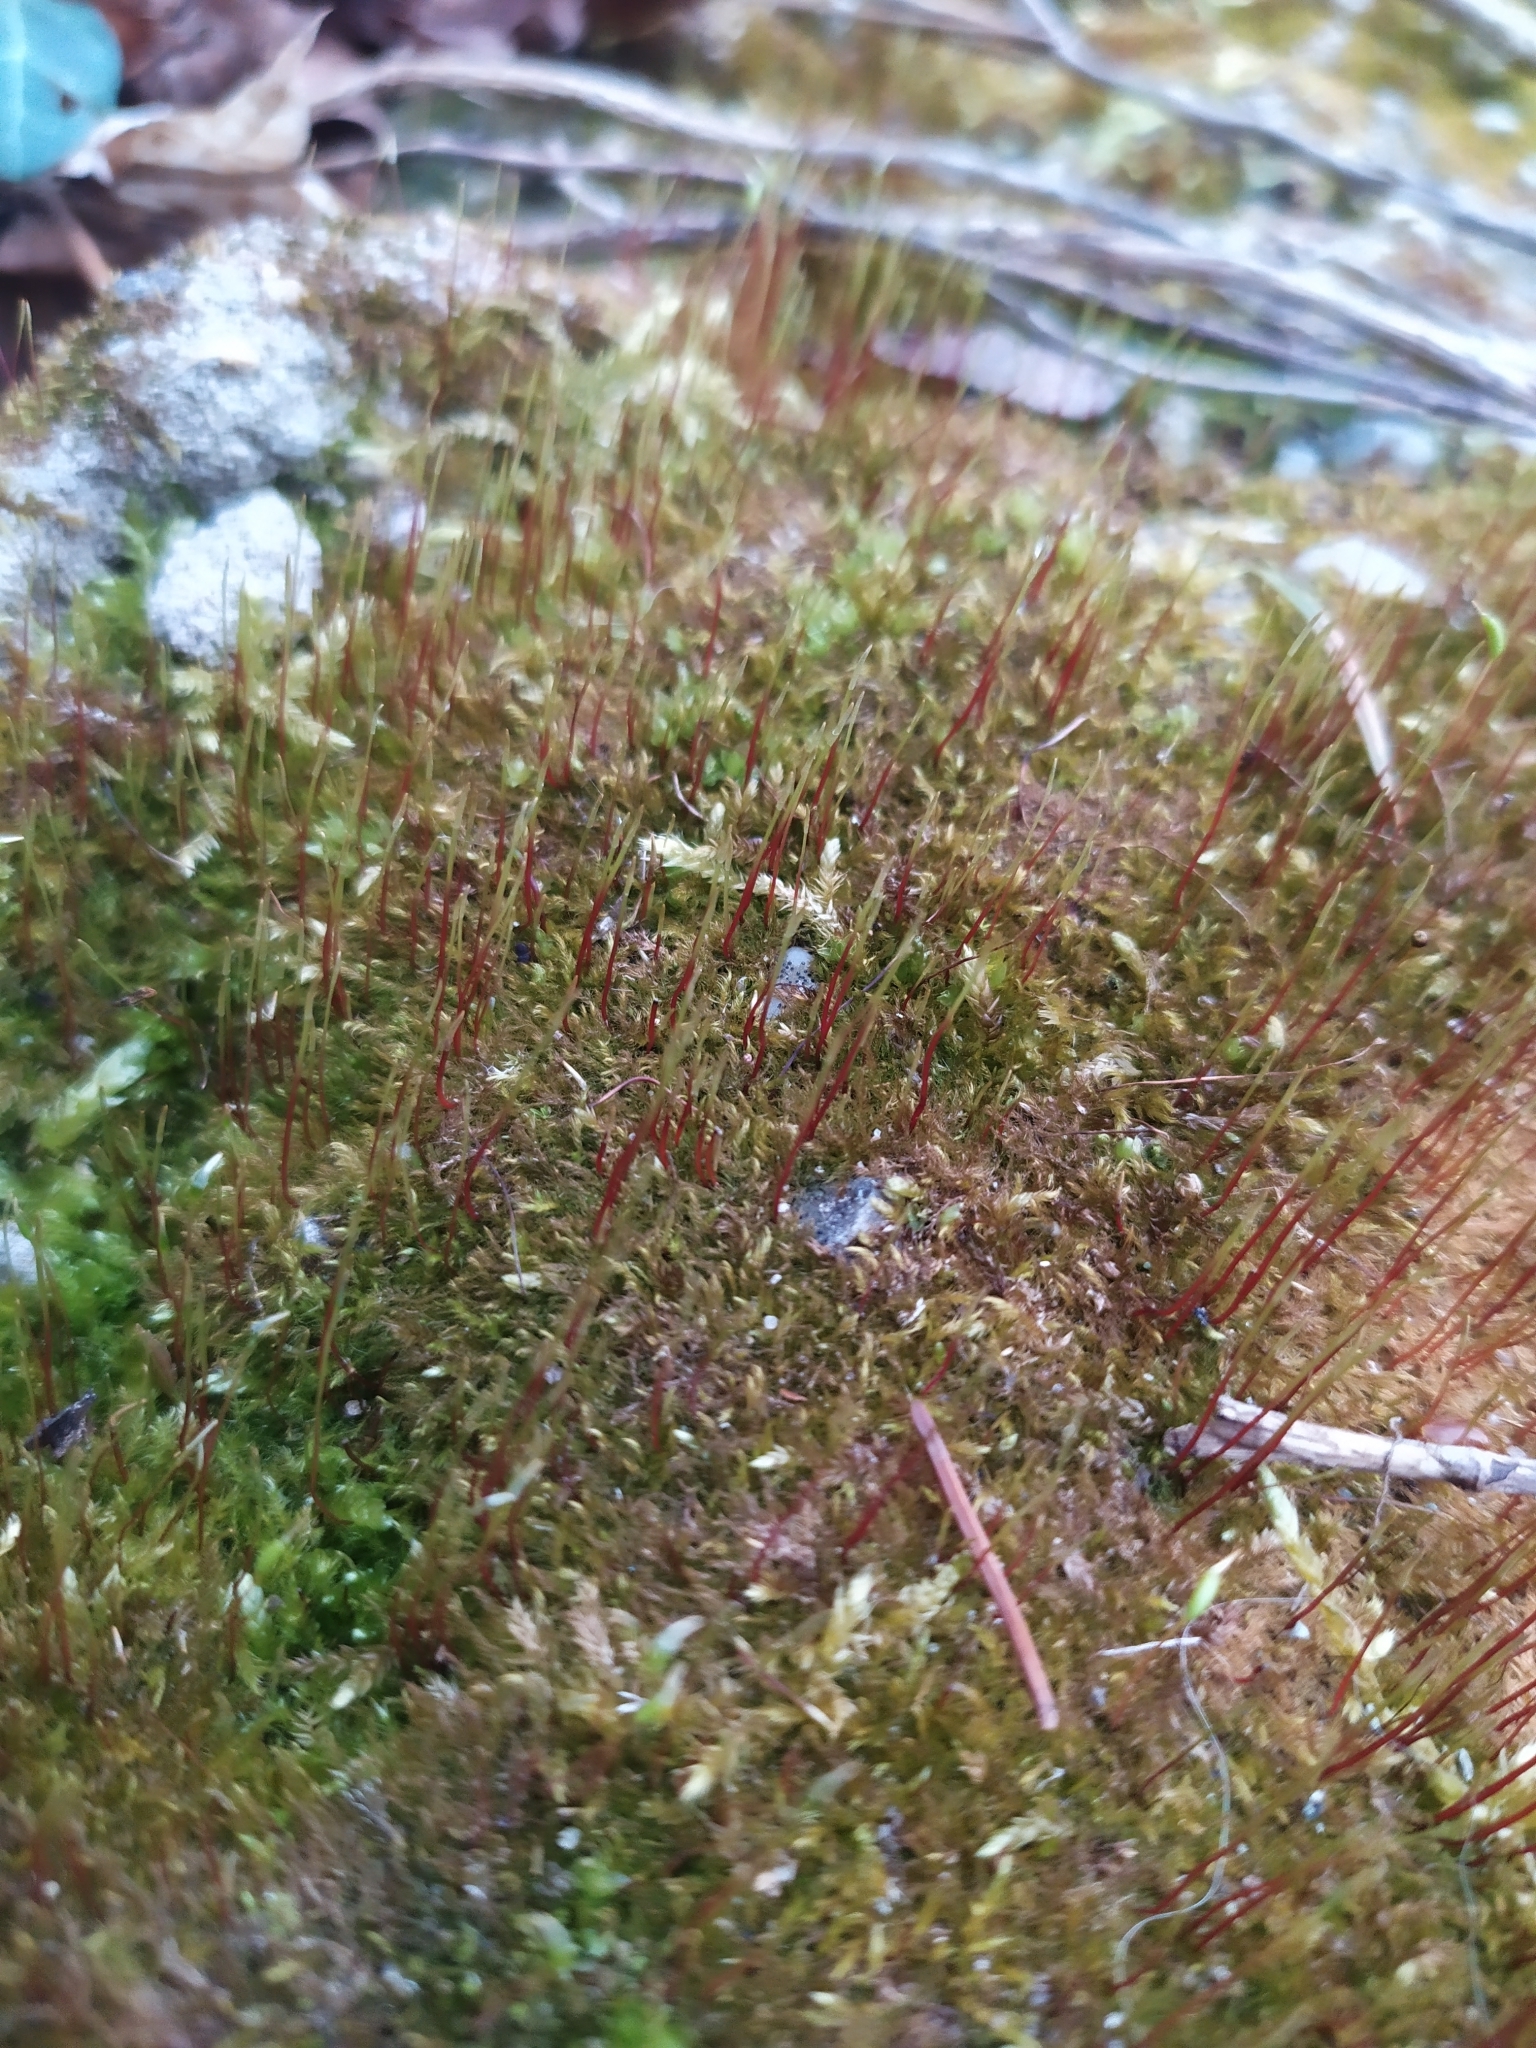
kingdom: Plantae
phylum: Bryophyta
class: Bryopsida
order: Hypnales
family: Amblystegiaceae
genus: Amblystegium
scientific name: Amblystegium serpens
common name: Jurkatzka's feather moss
